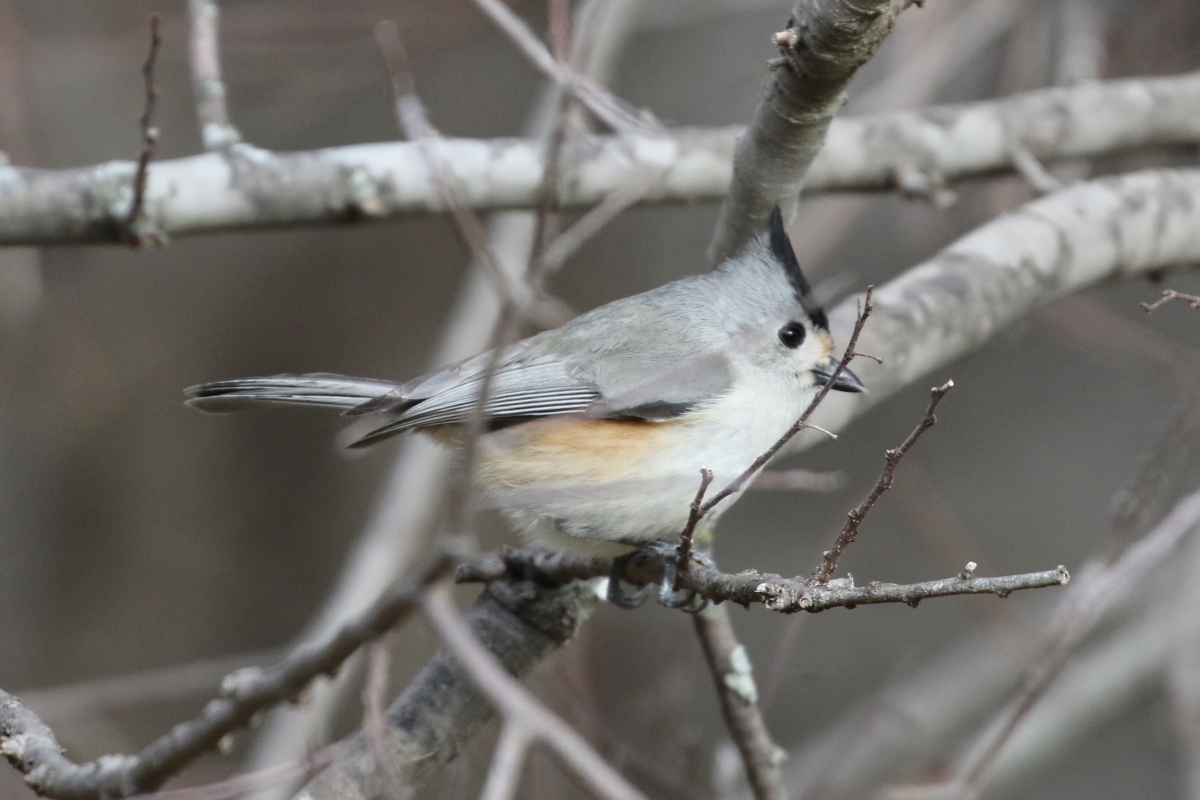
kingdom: Animalia
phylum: Chordata
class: Aves
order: Passeriformes
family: Paridae
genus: Baeolophus
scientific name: Baeolophus atricristatus
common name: Black-crested titmouse
